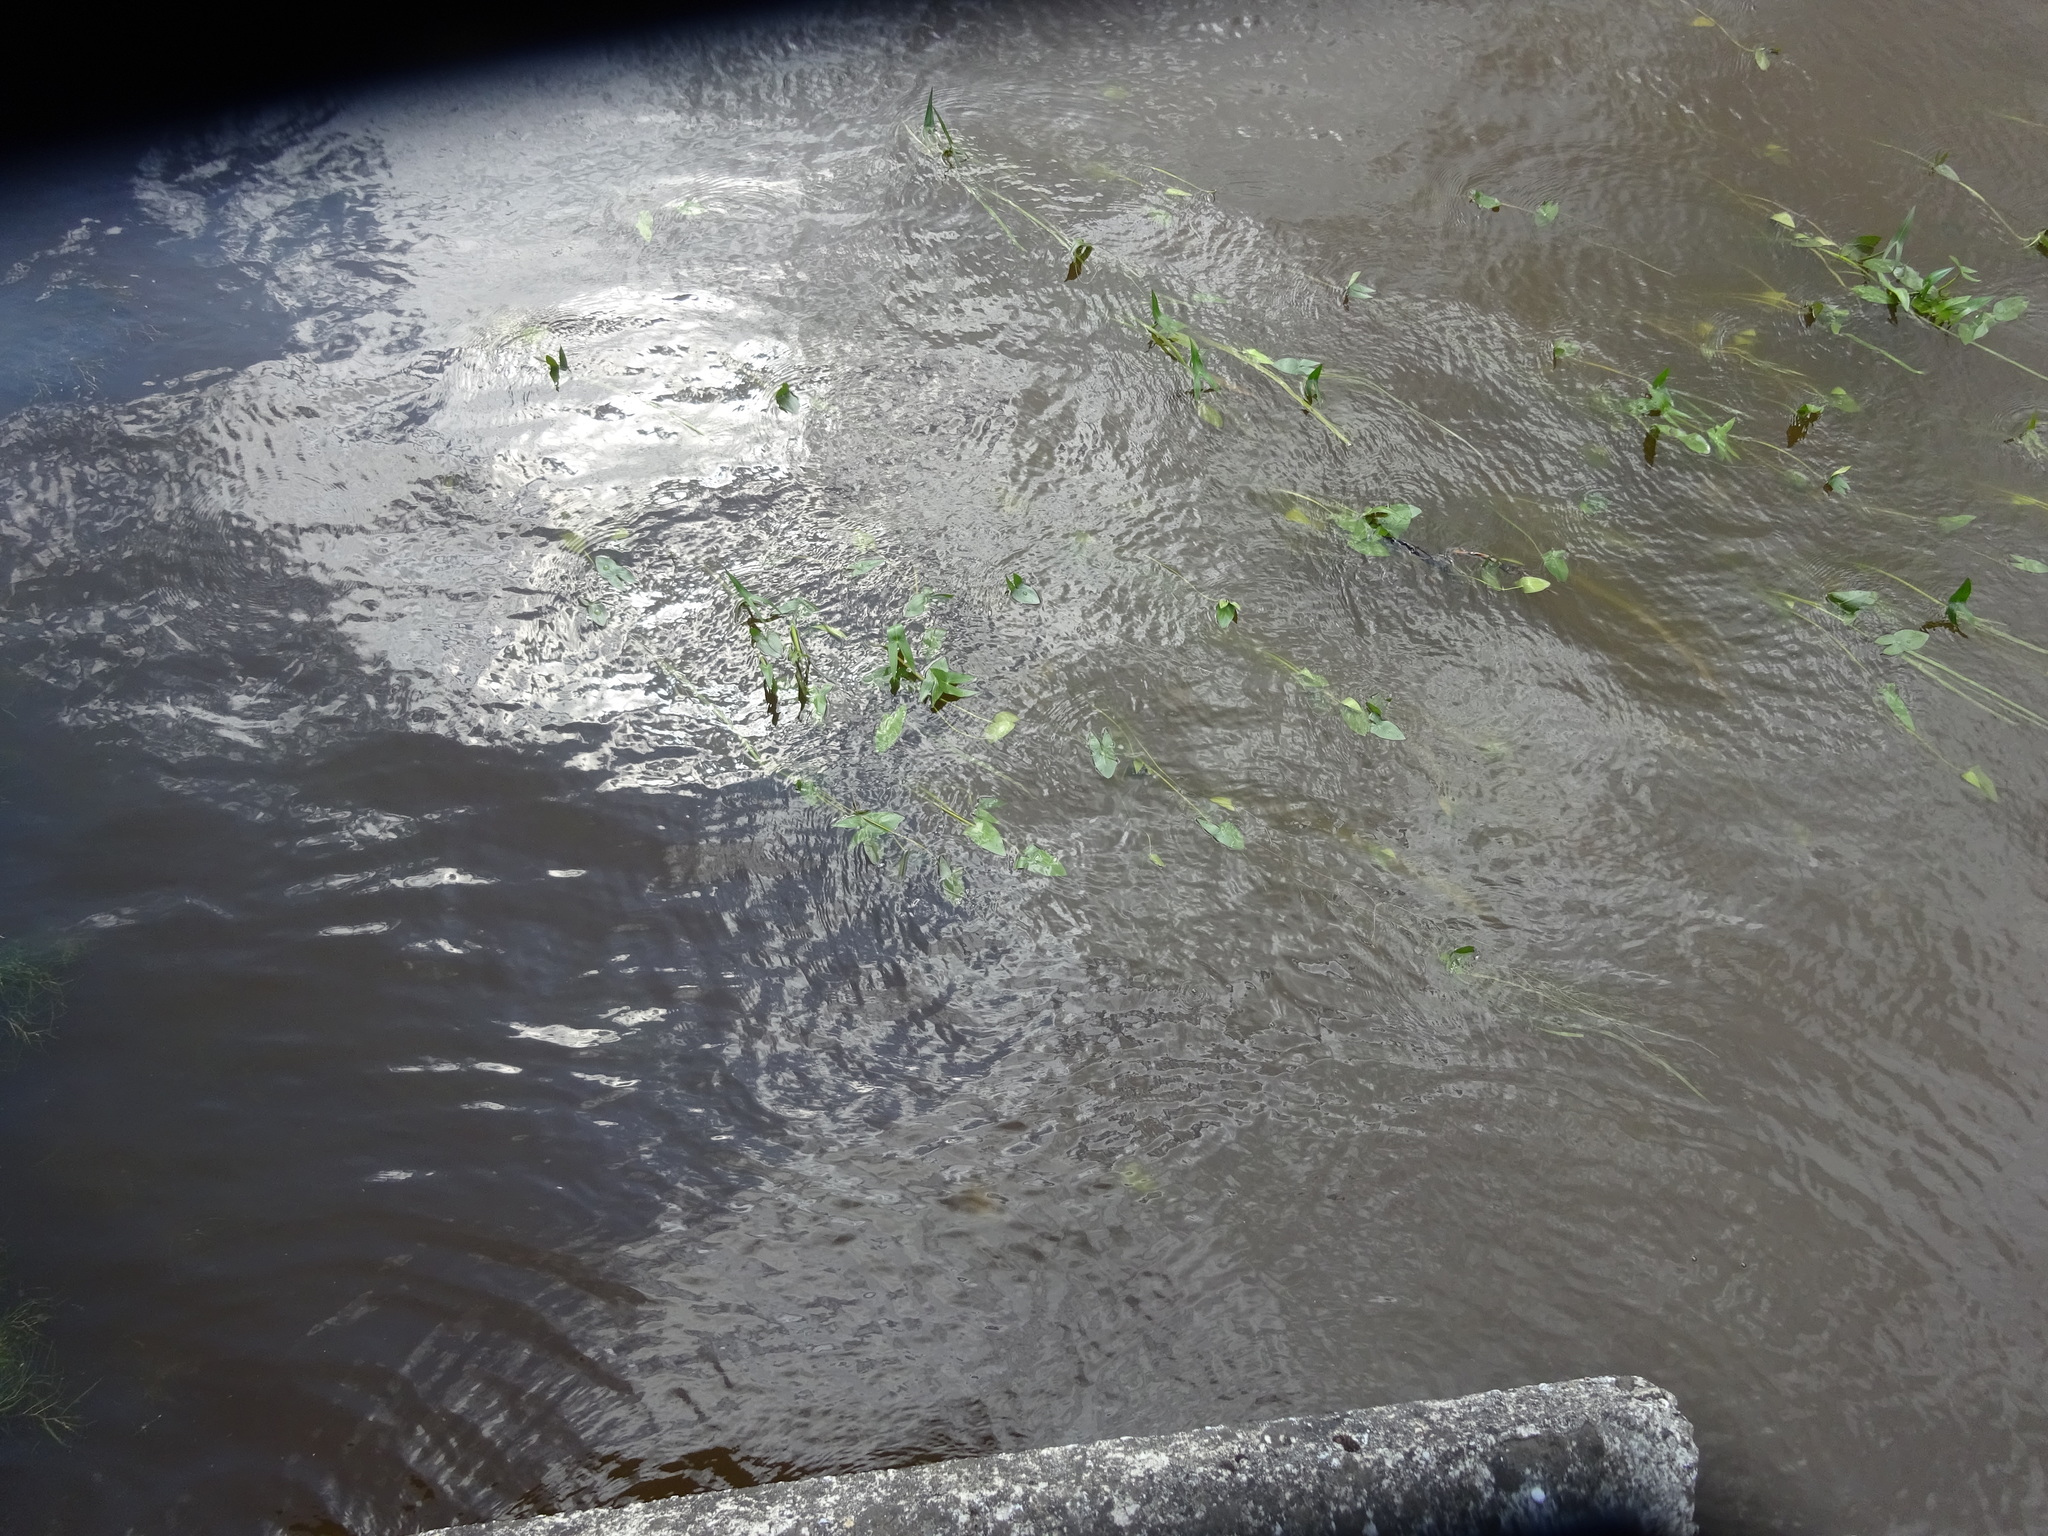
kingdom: Plantae
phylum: Tracheophyta
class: Liliopsida
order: Alismatales
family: Alismataceae
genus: Sagittaria
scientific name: Sagittaria sagittifolia
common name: Arrowhead
